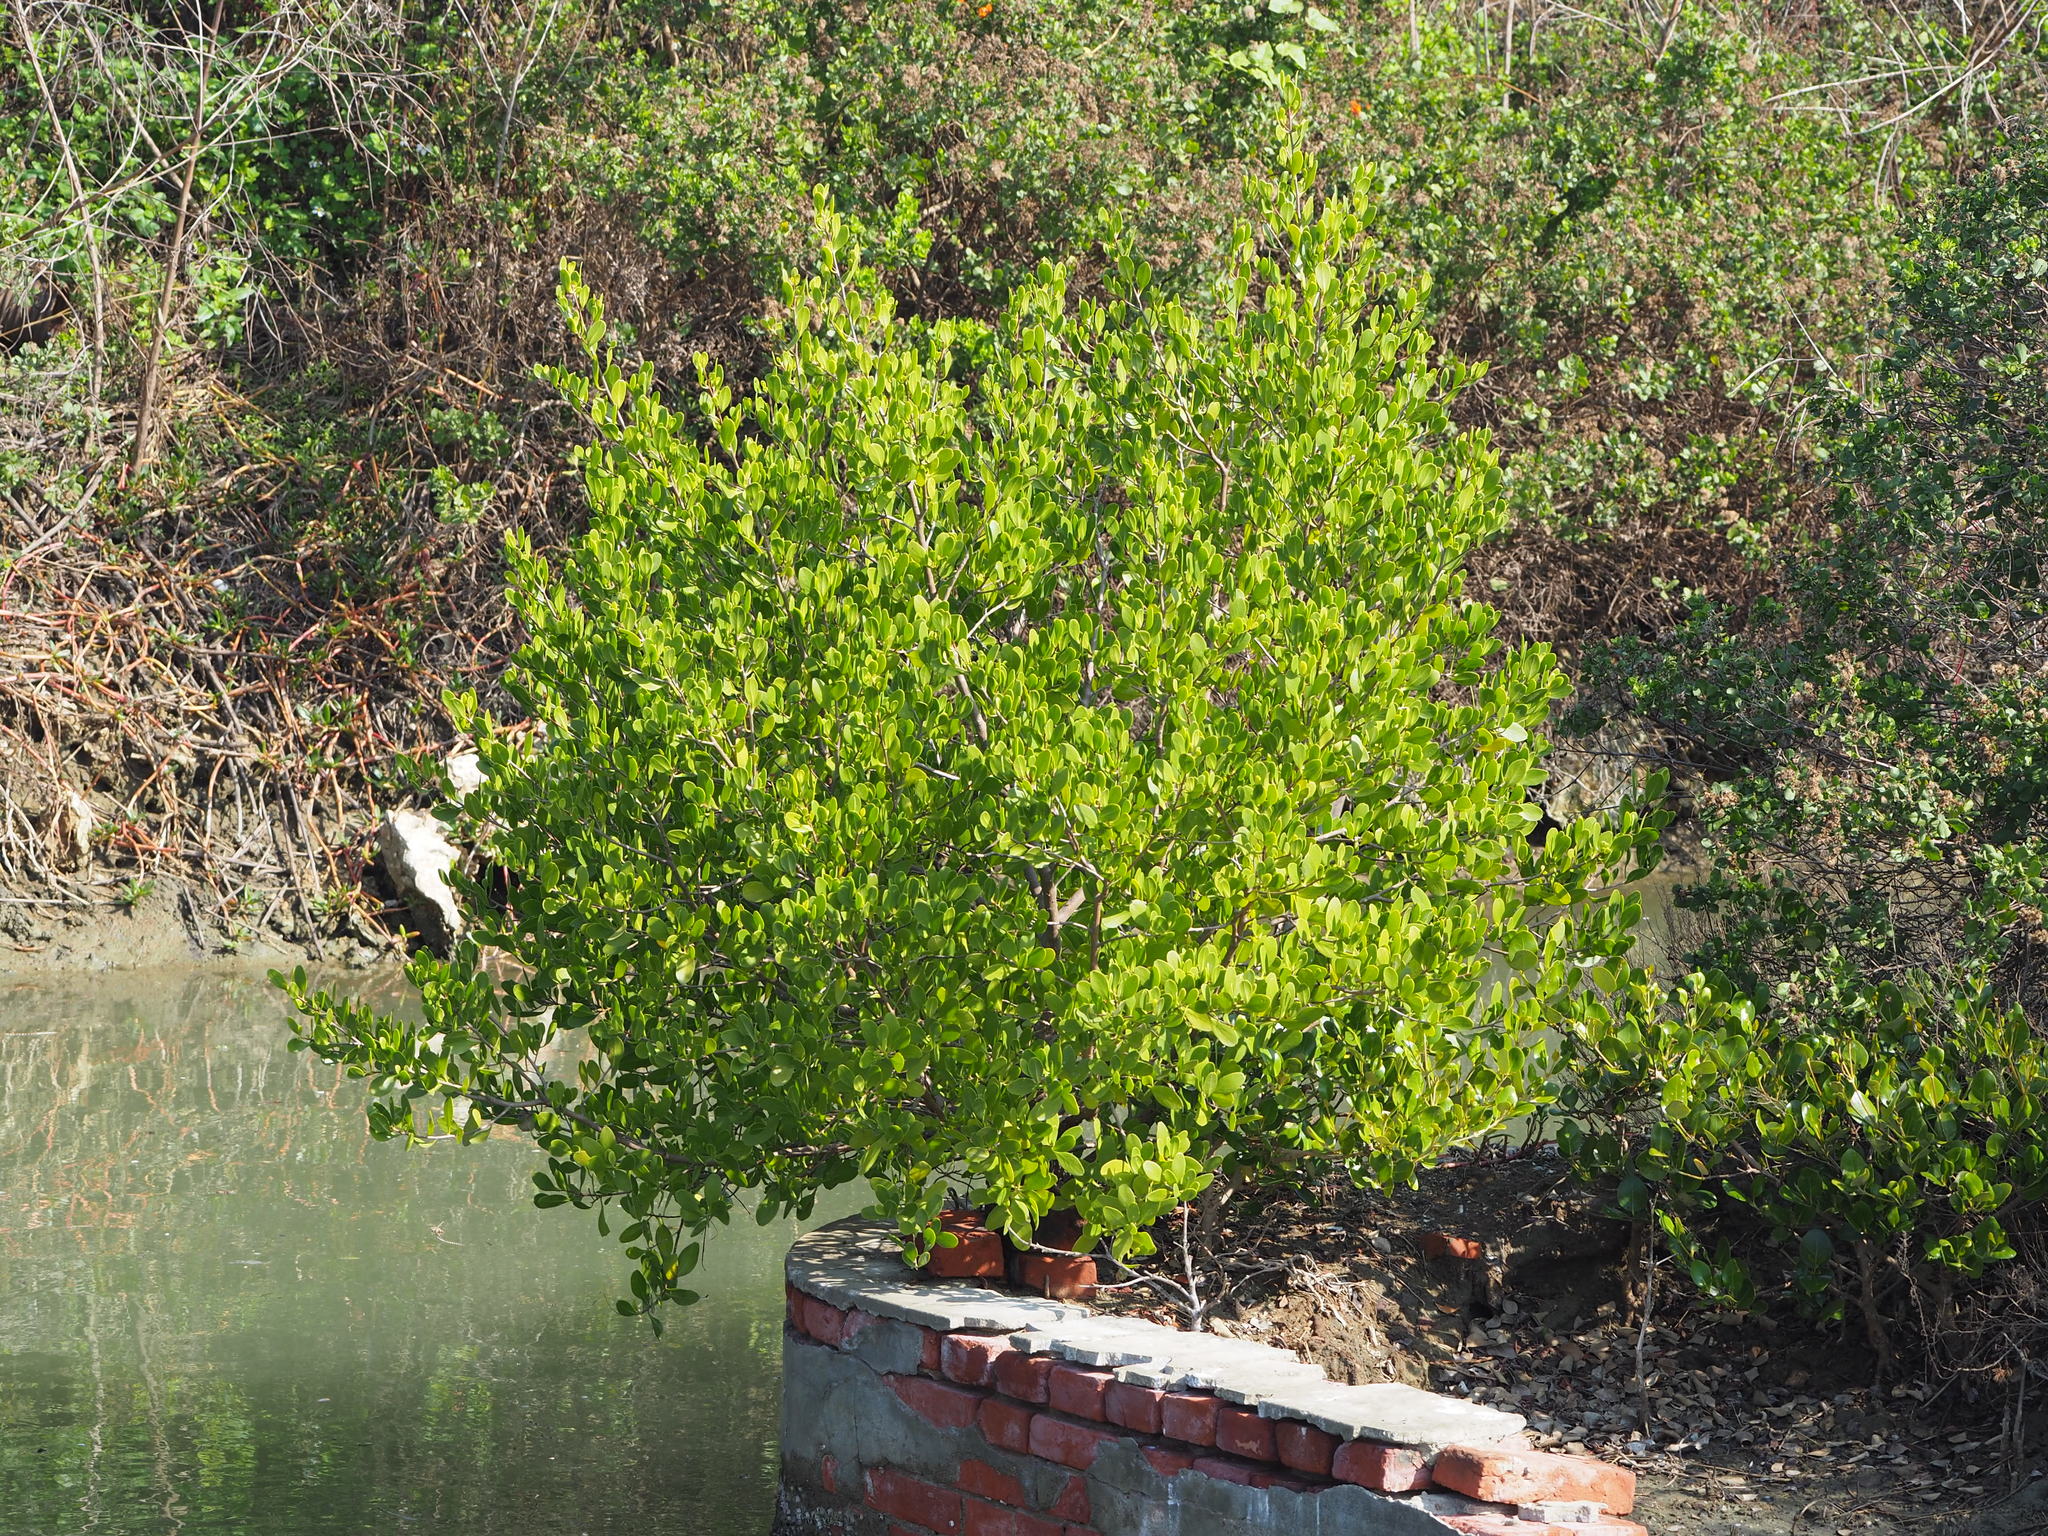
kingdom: Plantae
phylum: Tracheophyta
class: Magnoliopsida
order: Myrtales
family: Combretaceae
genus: Lumnitzera
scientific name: Lumnitzera racemosa
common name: White-flowered black mangrove
